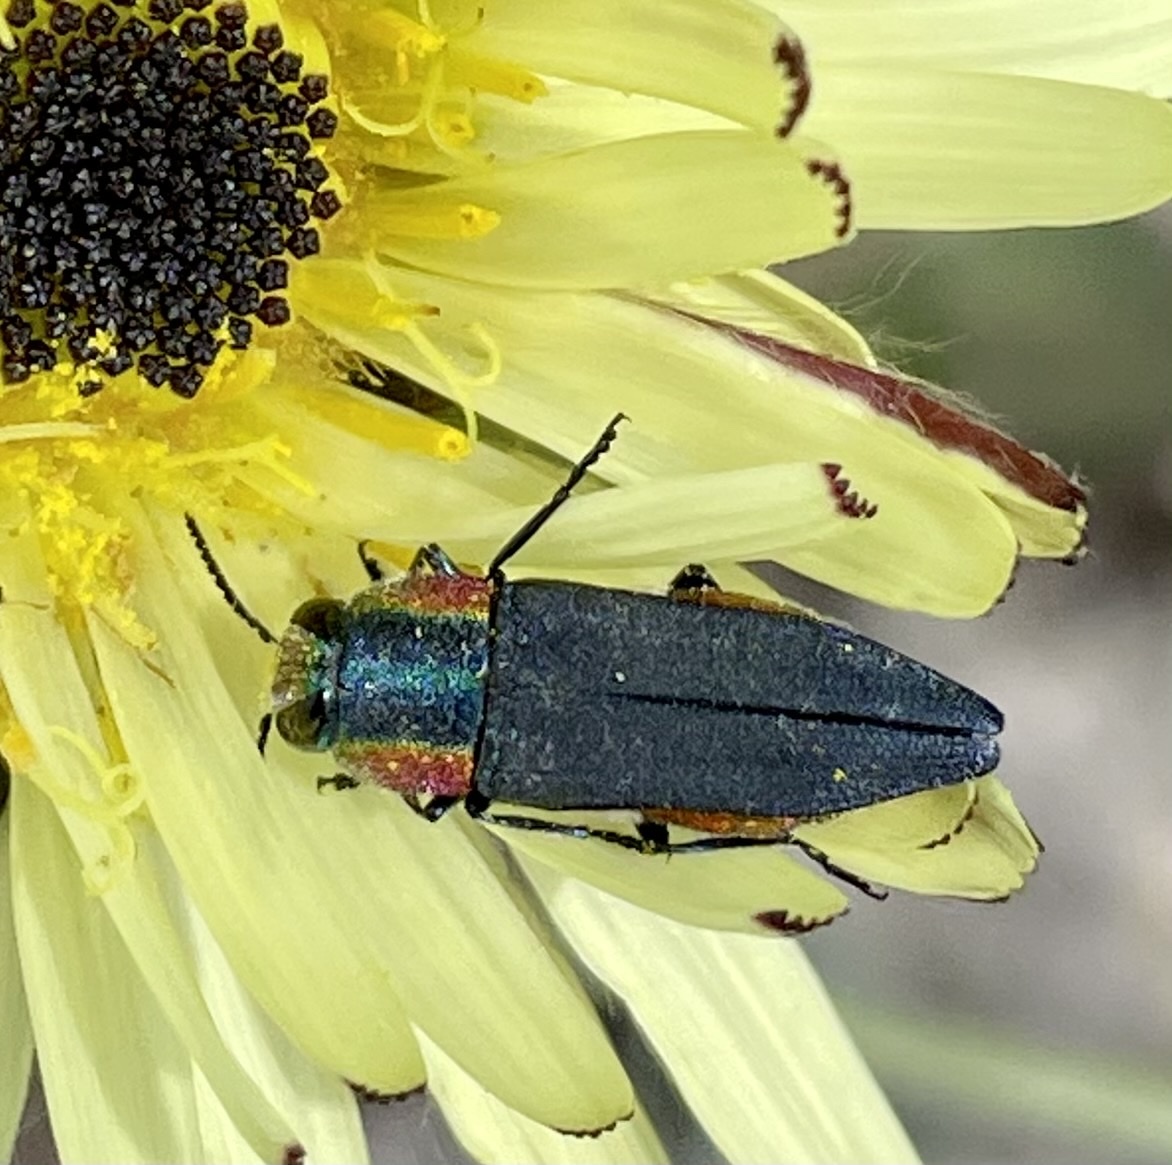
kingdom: Animalia
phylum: Arthropoda
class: Insecta
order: Coleoptera
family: Buprestidae
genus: Anthaxia
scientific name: Anthaxia hungarica
